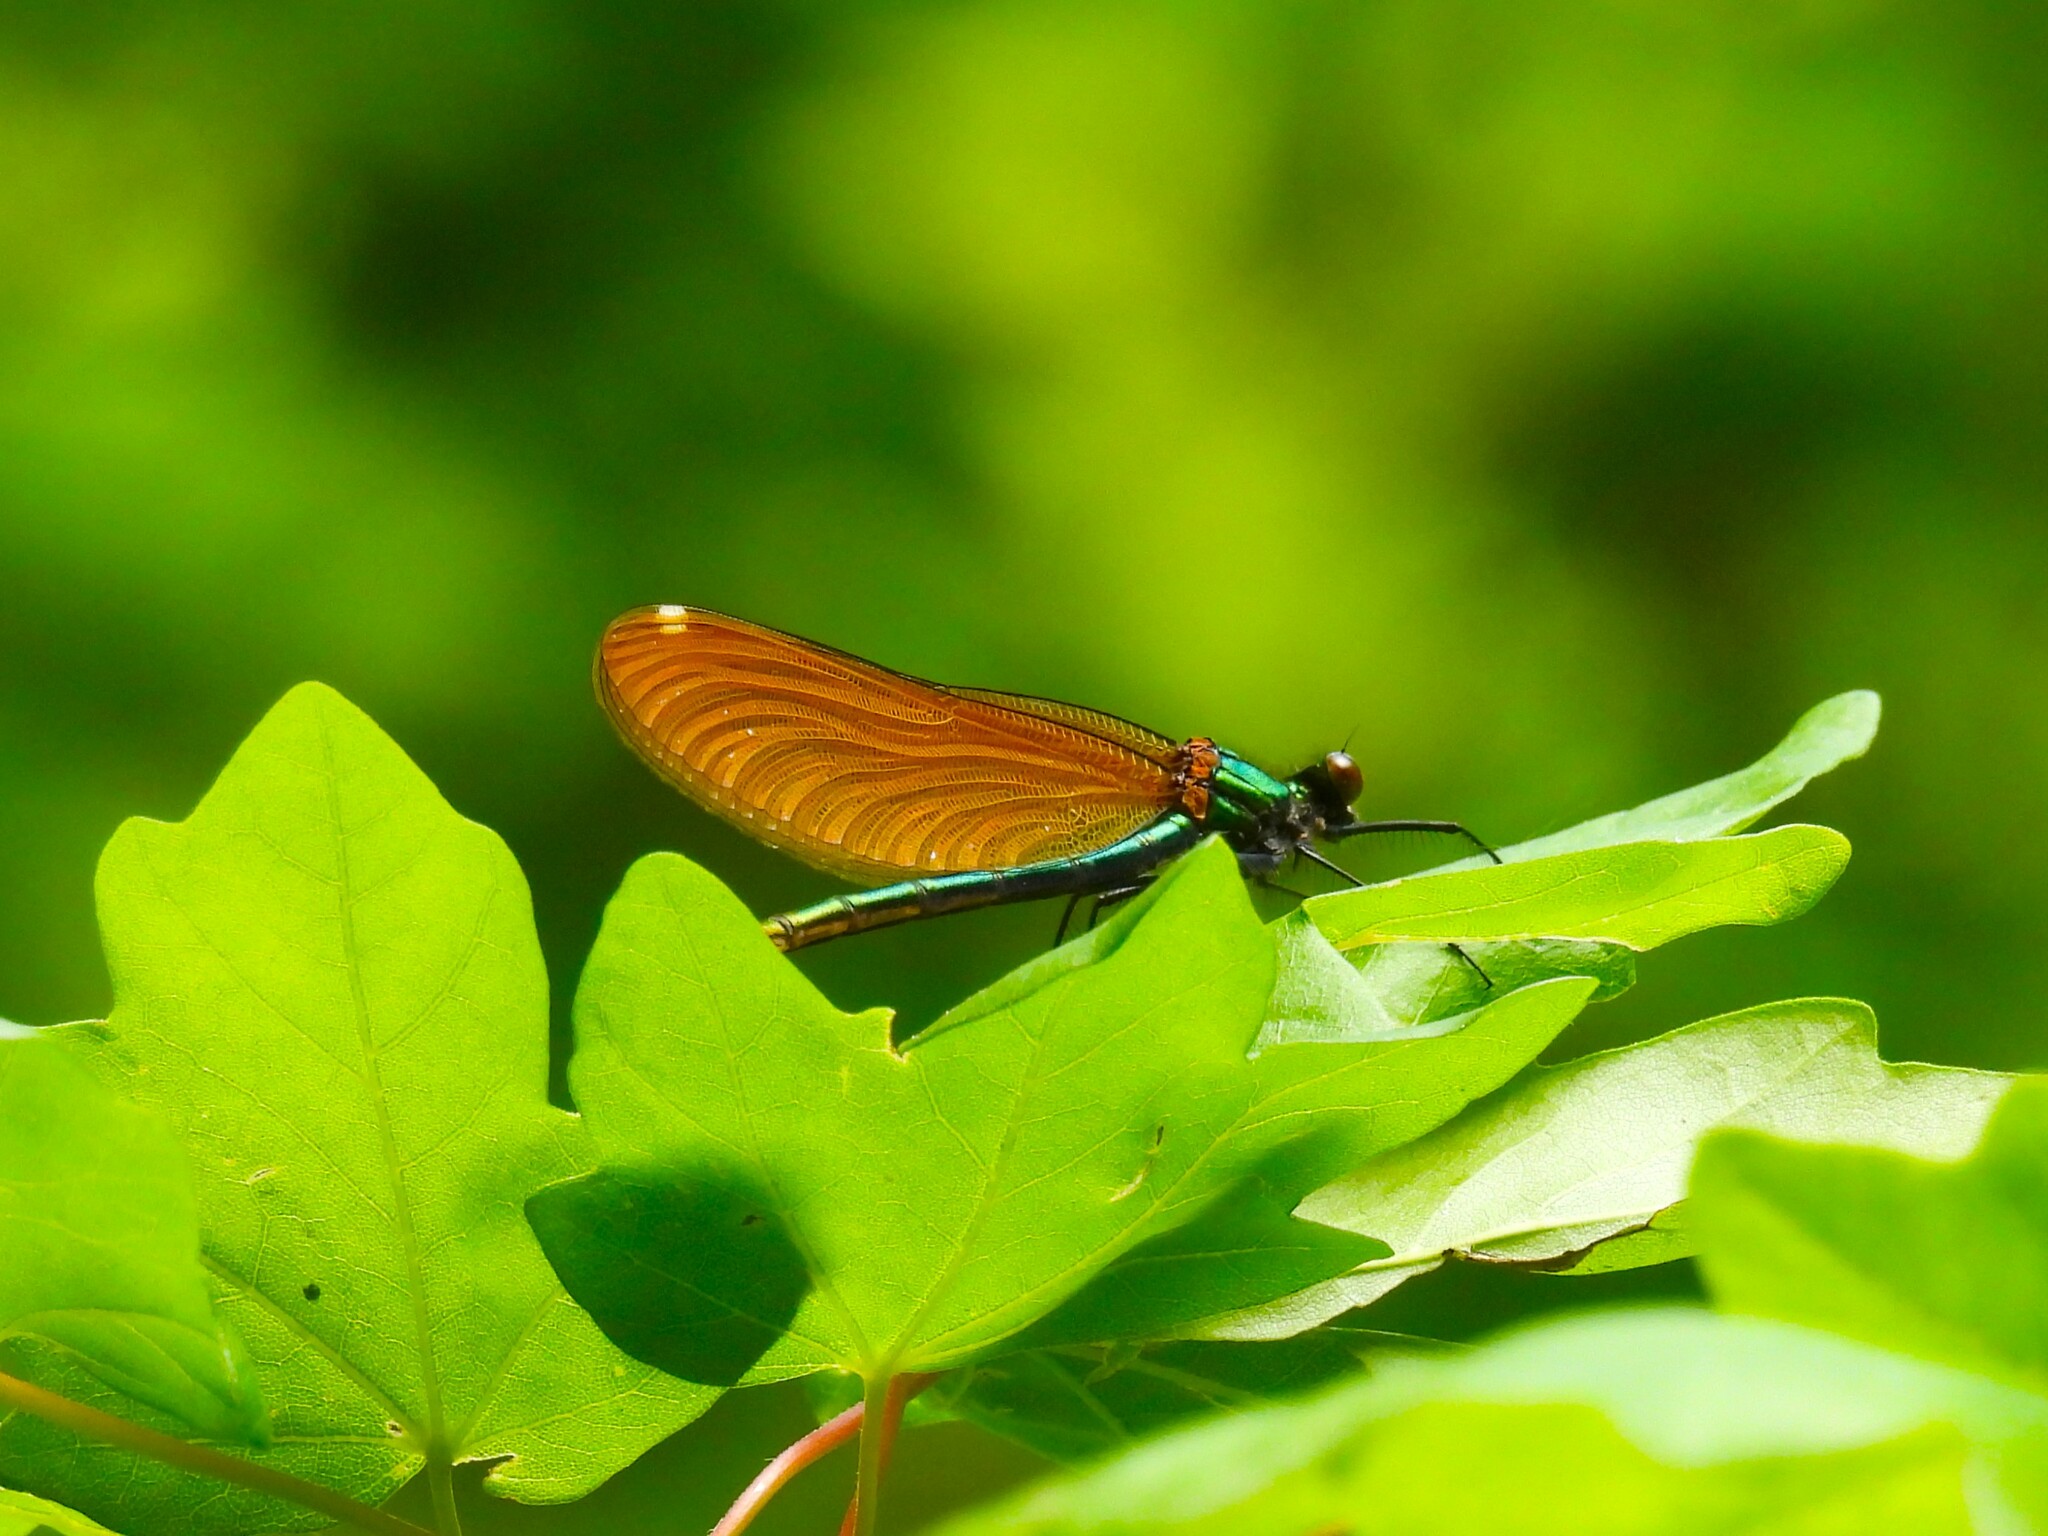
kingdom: Animalia
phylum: Arthropoda
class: Insecta
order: Odonata
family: Calopterygidae
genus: Calopteryx
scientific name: Calopteryx virgo
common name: Beautiful demoiselle
